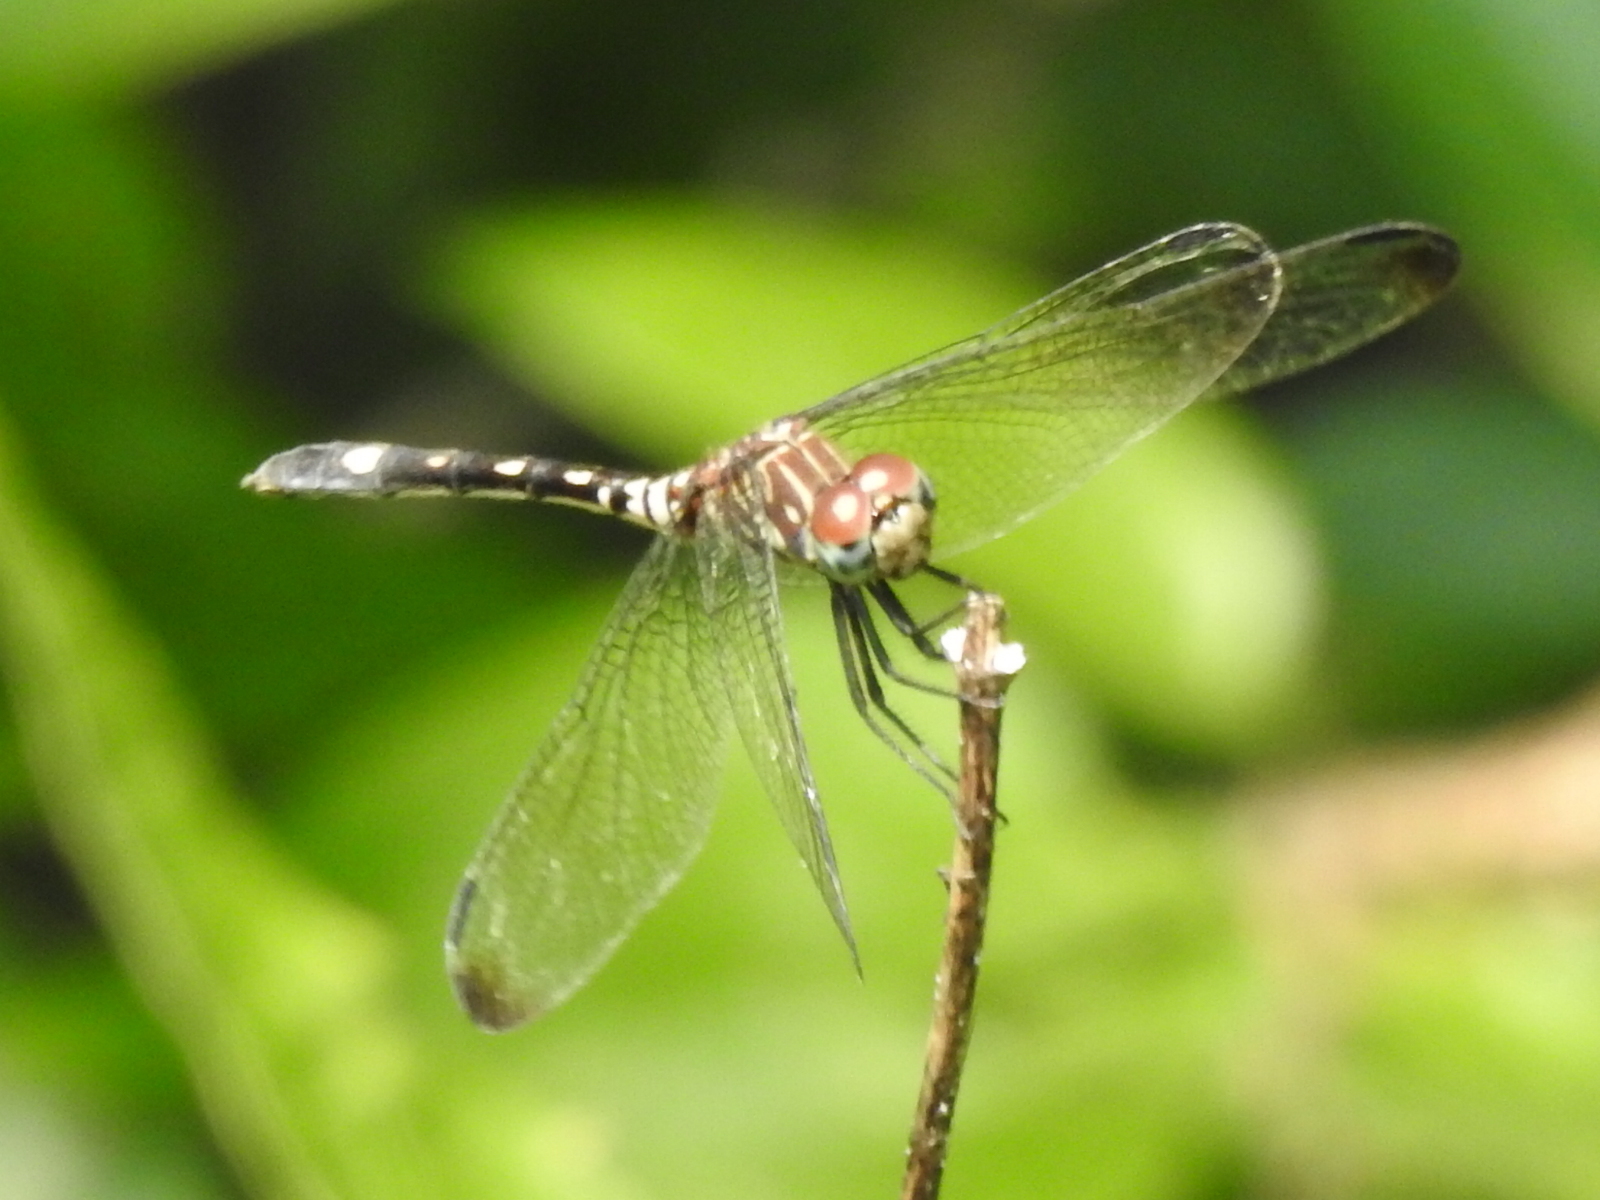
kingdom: Animalia
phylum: Arthropoda
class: Insecta
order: Odonata
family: Libellulidae
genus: Dythemis
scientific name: Dythemis velox
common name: Swift setwing
